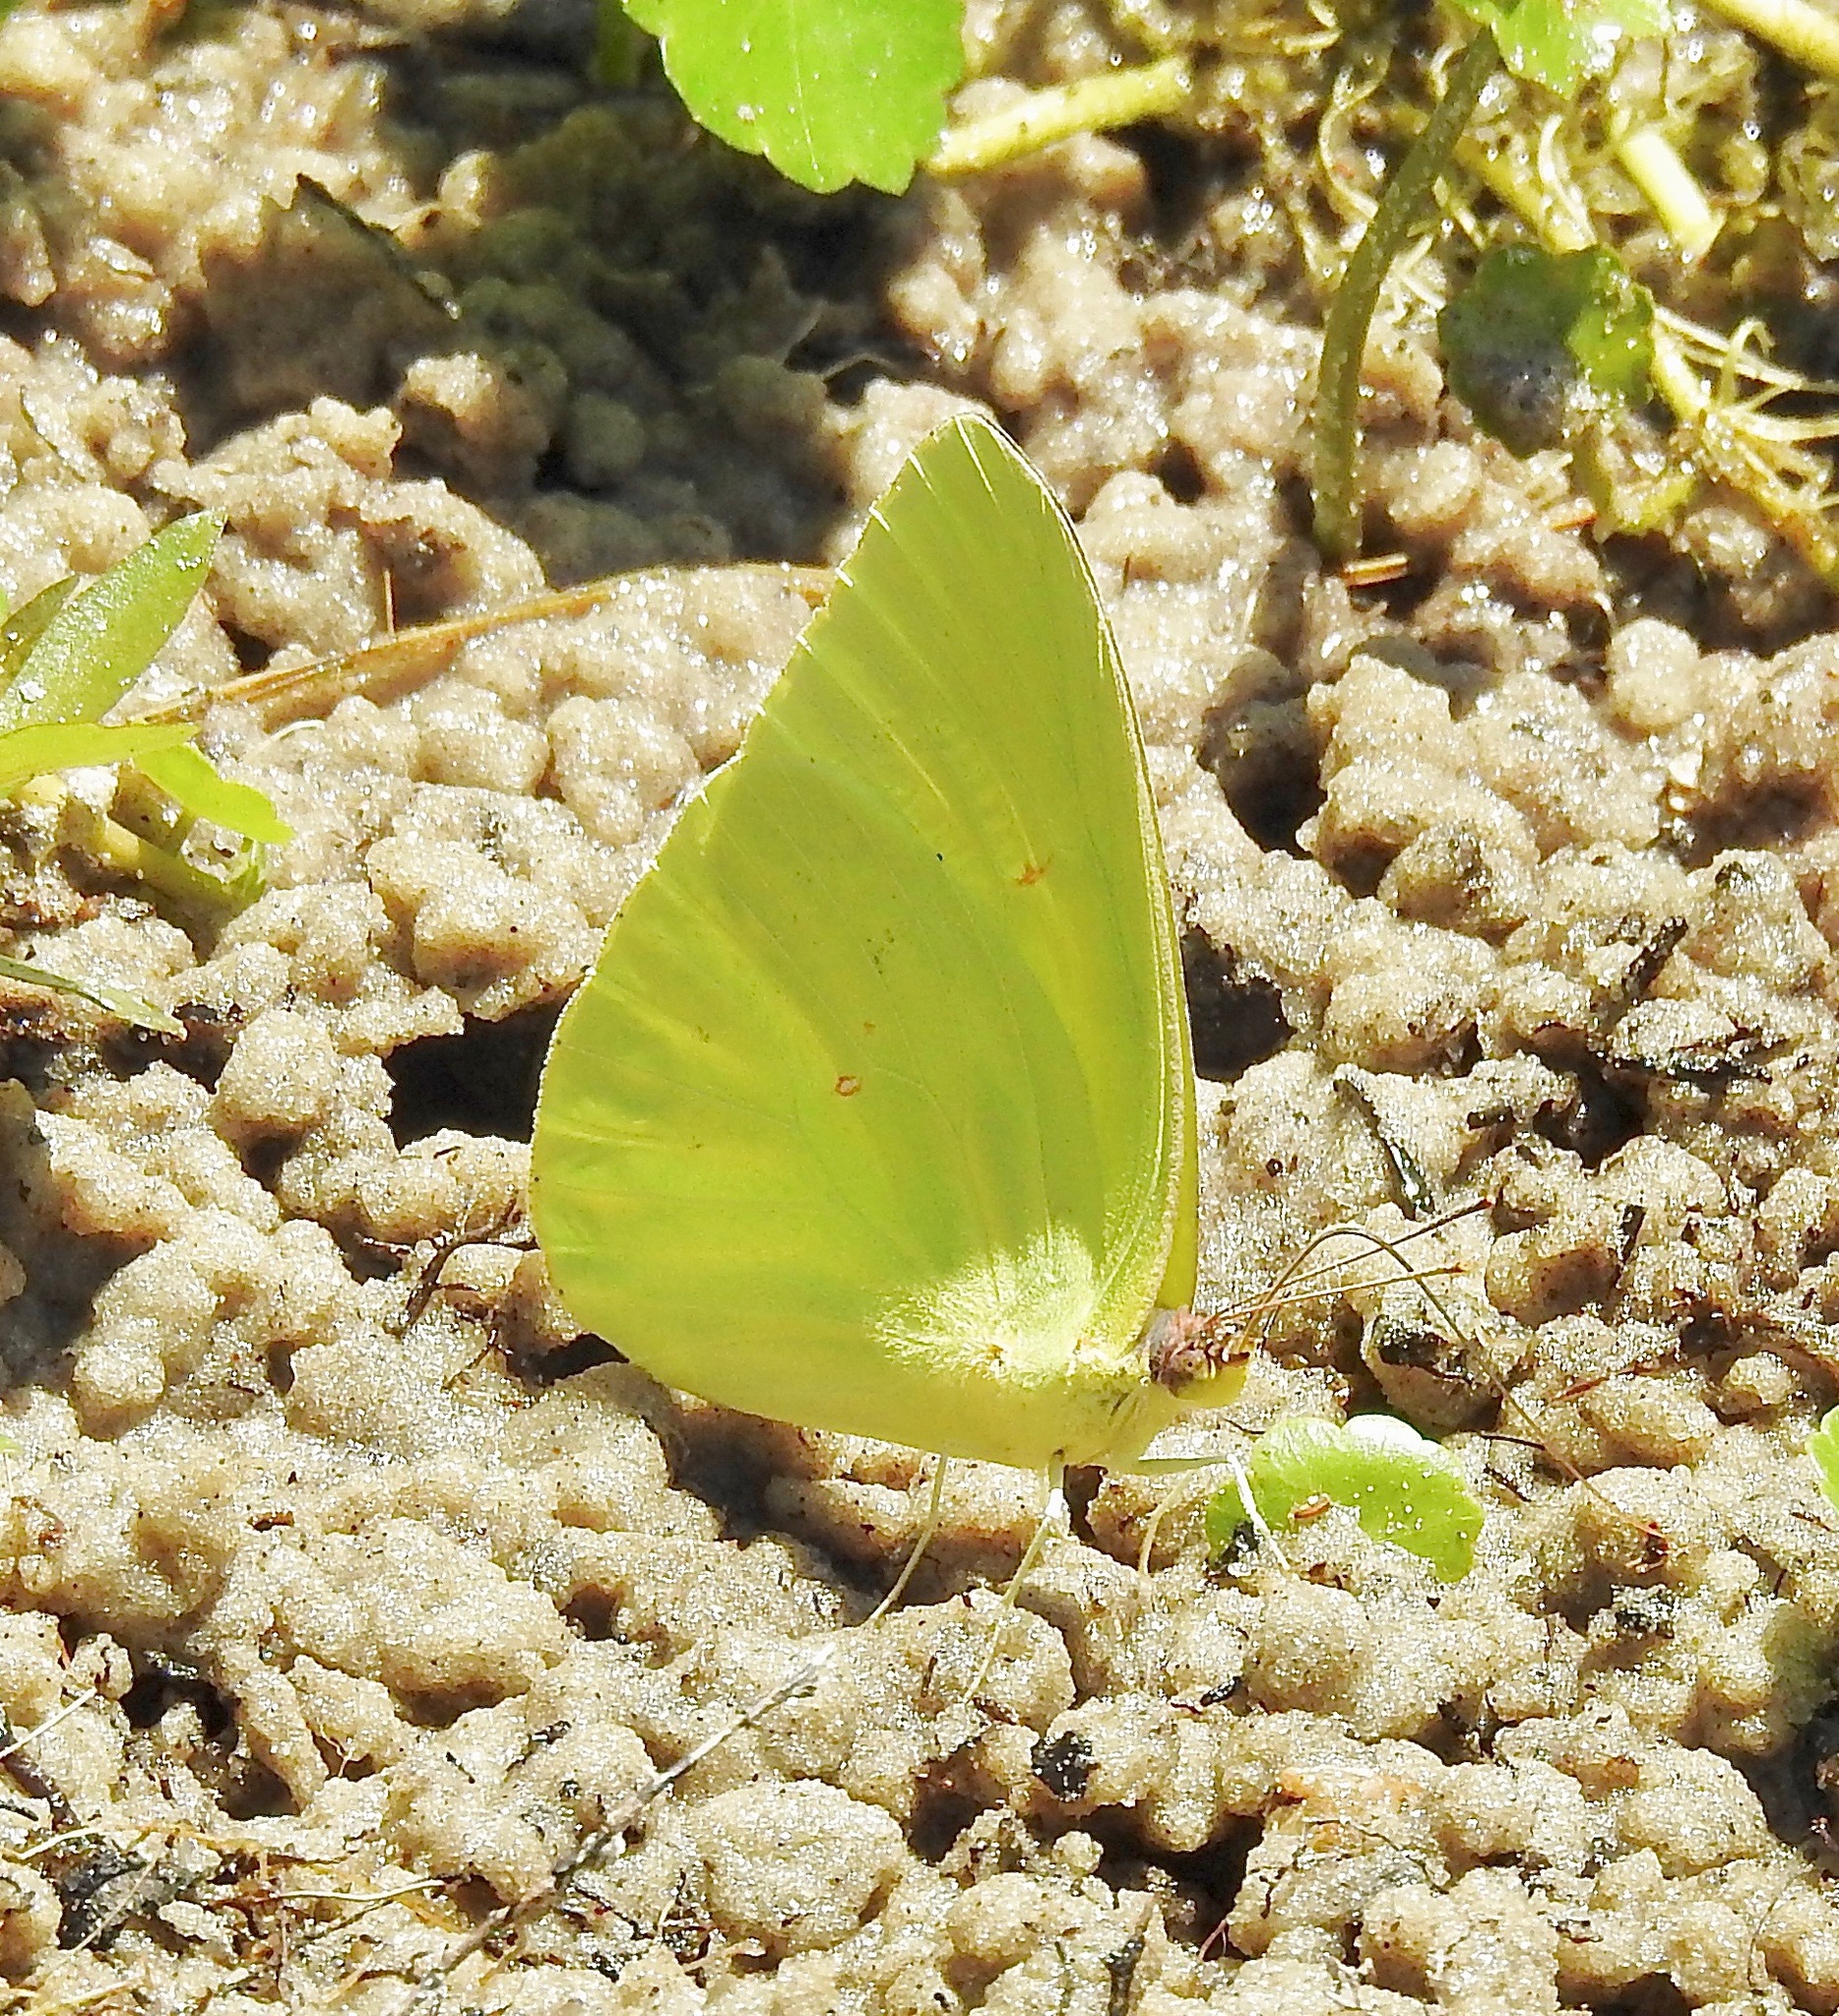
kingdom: Animalia
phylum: Arthropoda
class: Insecta
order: Lepidoptera
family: Pieridae
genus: Phoebis
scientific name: Phoebis sennae
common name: Cloudless sulphur
